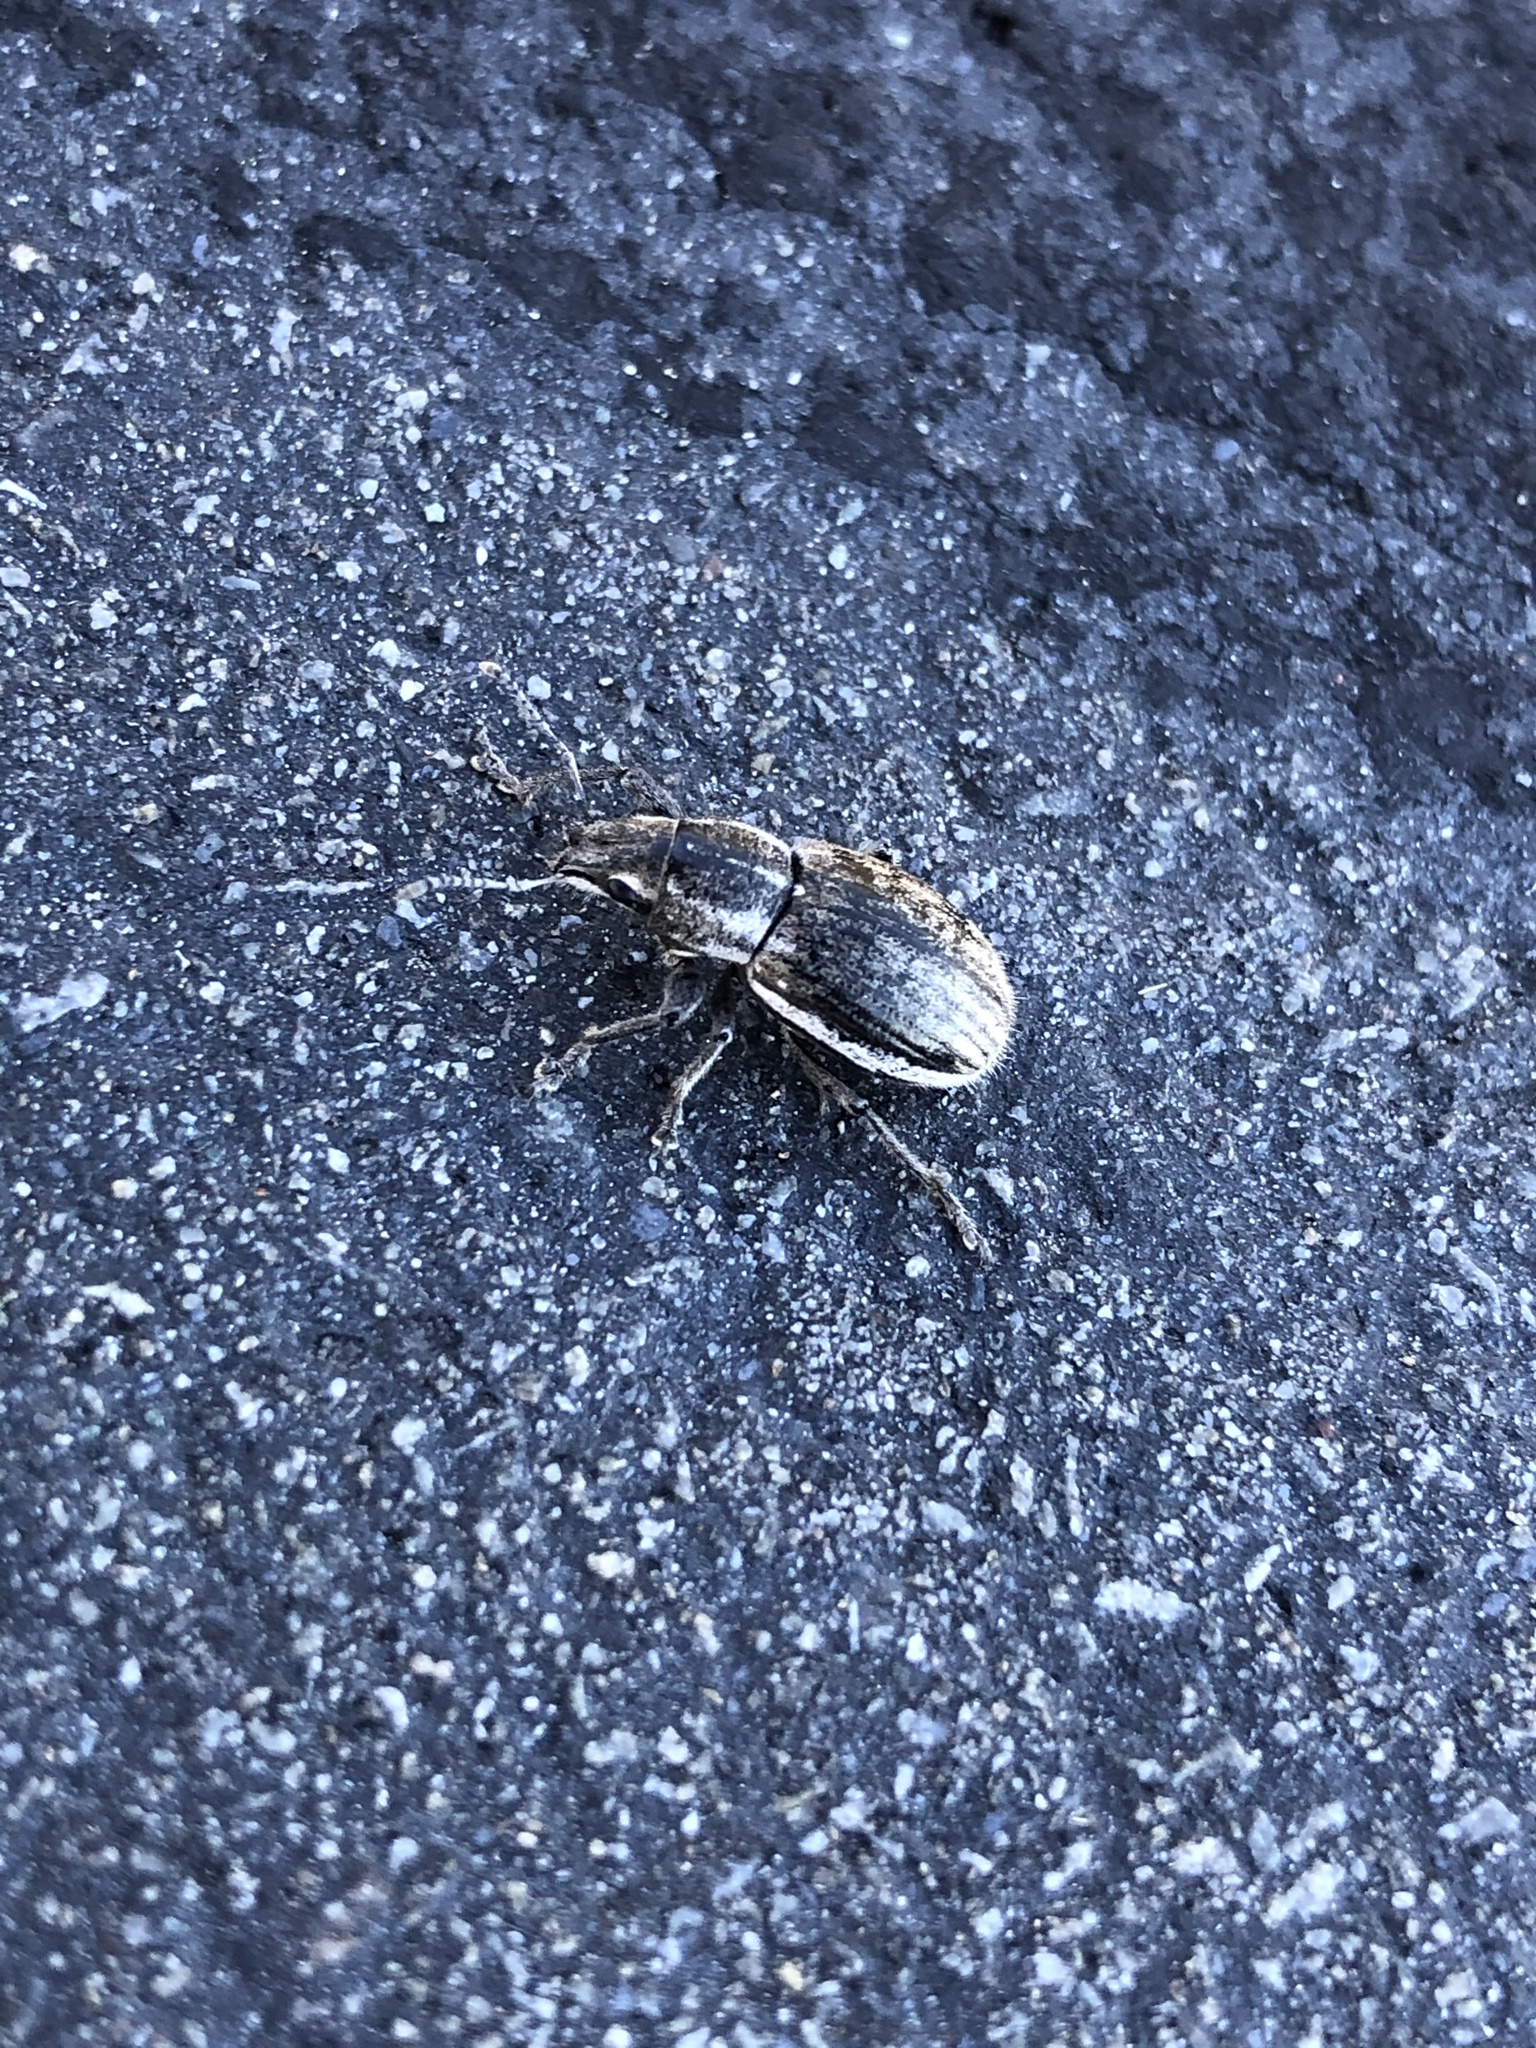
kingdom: Animalia
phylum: Arthropoda
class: Insecta
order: Coleoptera
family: Curculionidae
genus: Naupactus
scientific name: Naupactus leucoloma
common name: Whitefringed beetle
